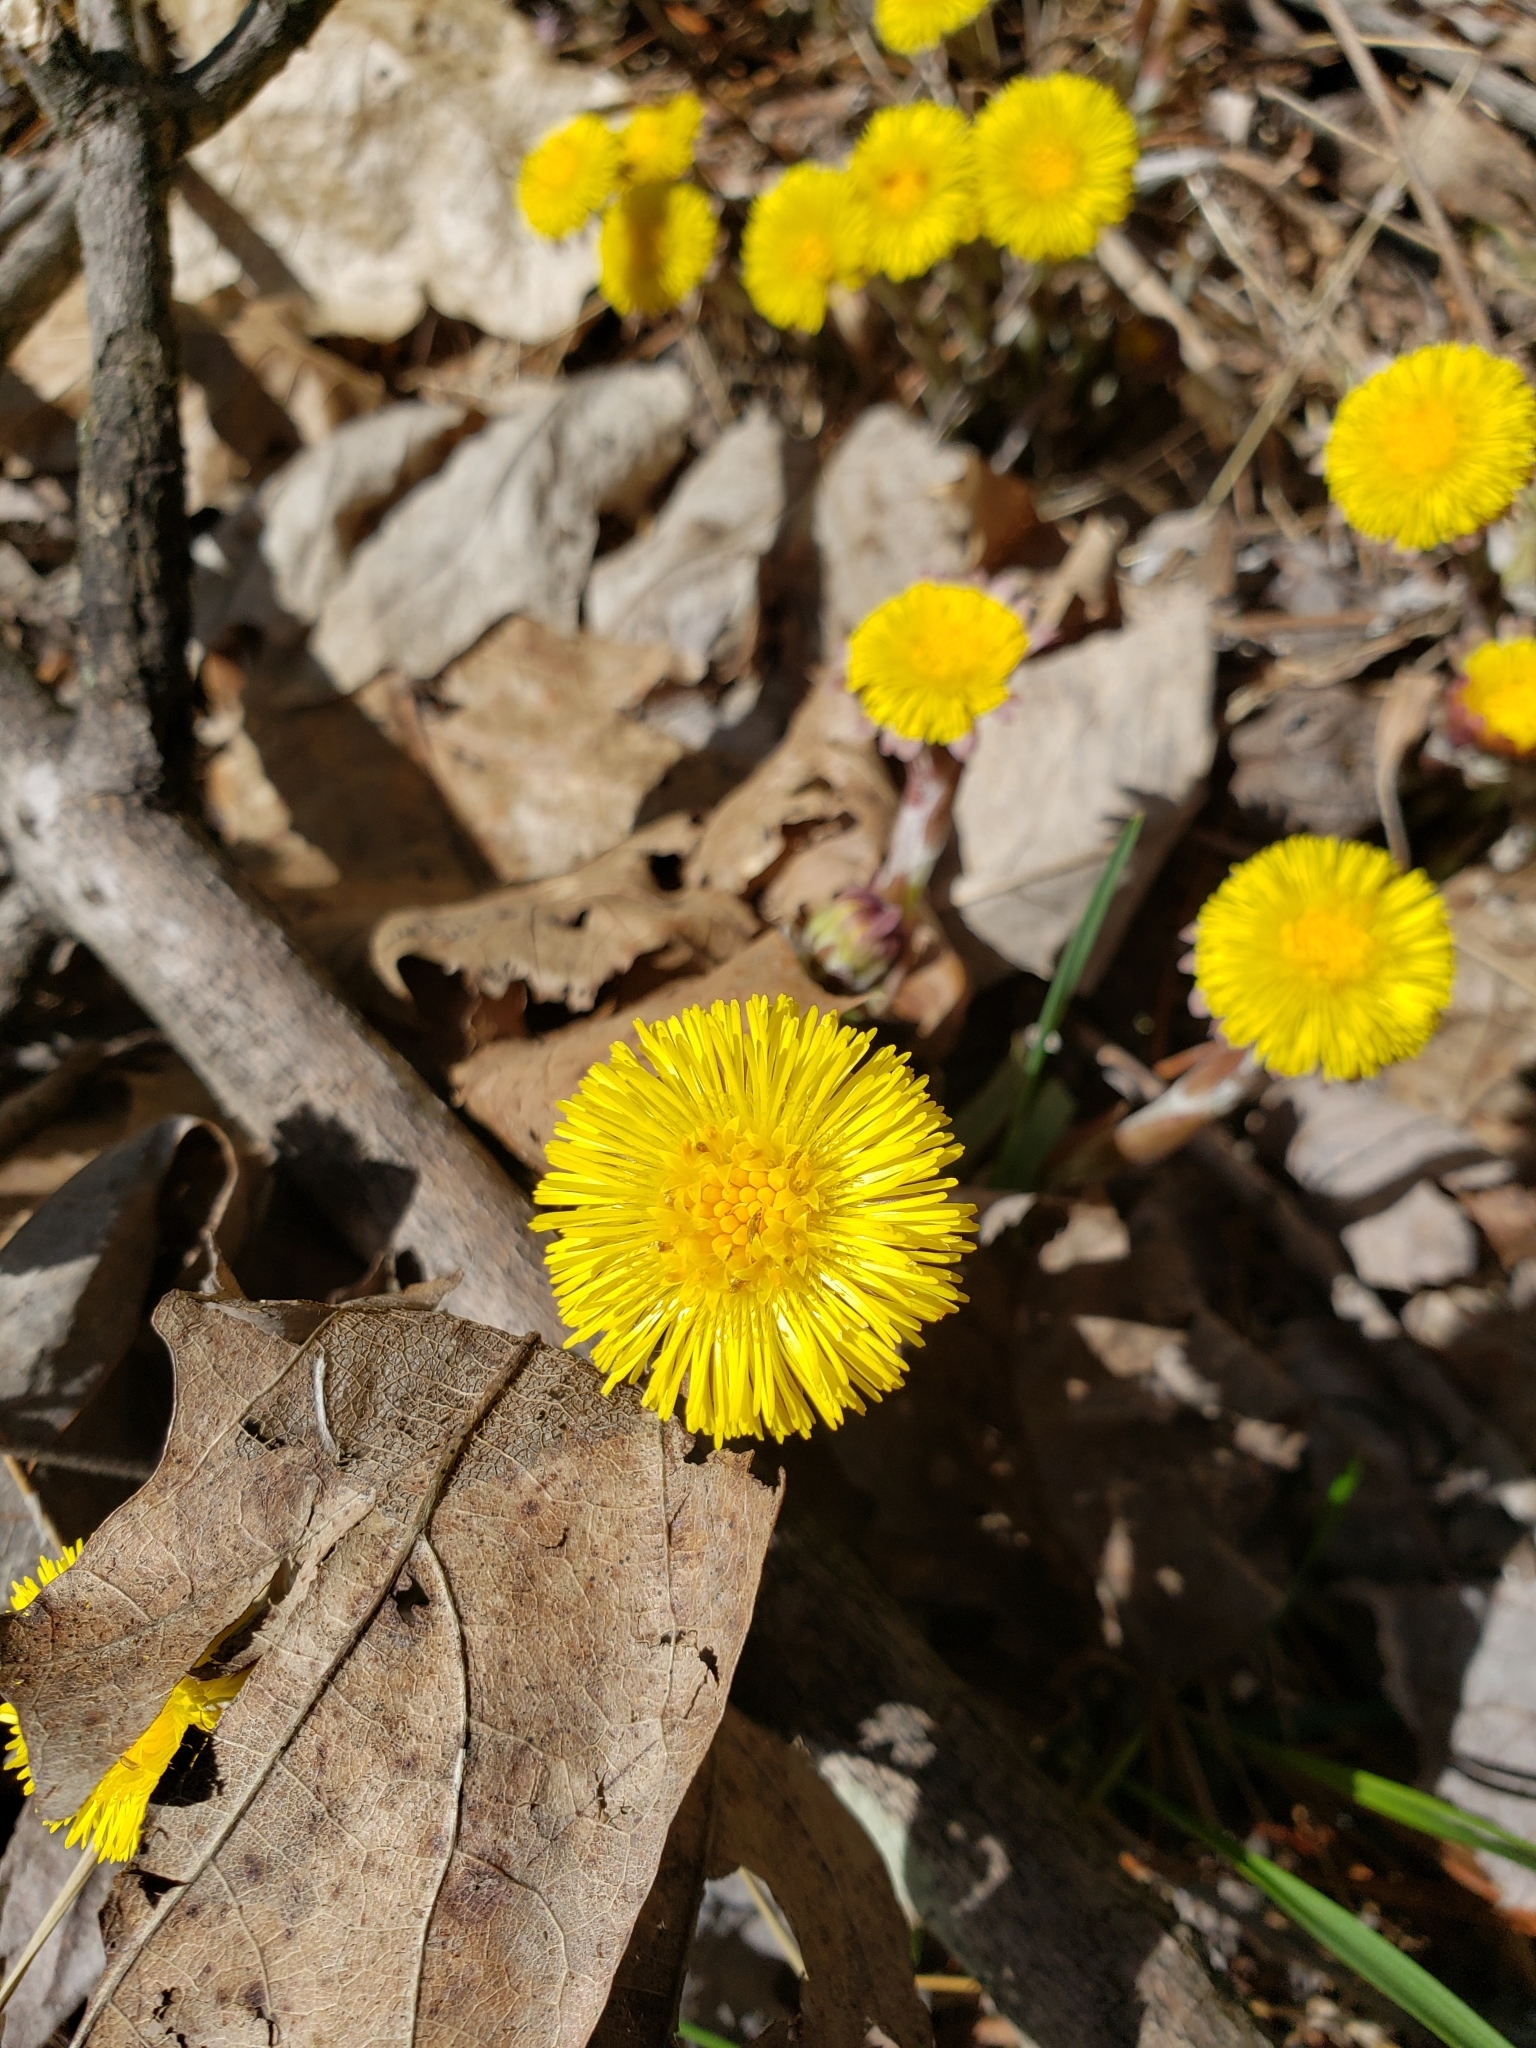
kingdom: Plantae
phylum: Tracheophyta
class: Magnoliopsida
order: Asterales
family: Asteraceae
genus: Tussilago
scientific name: Tussilago farfara
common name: Coltsfoot
